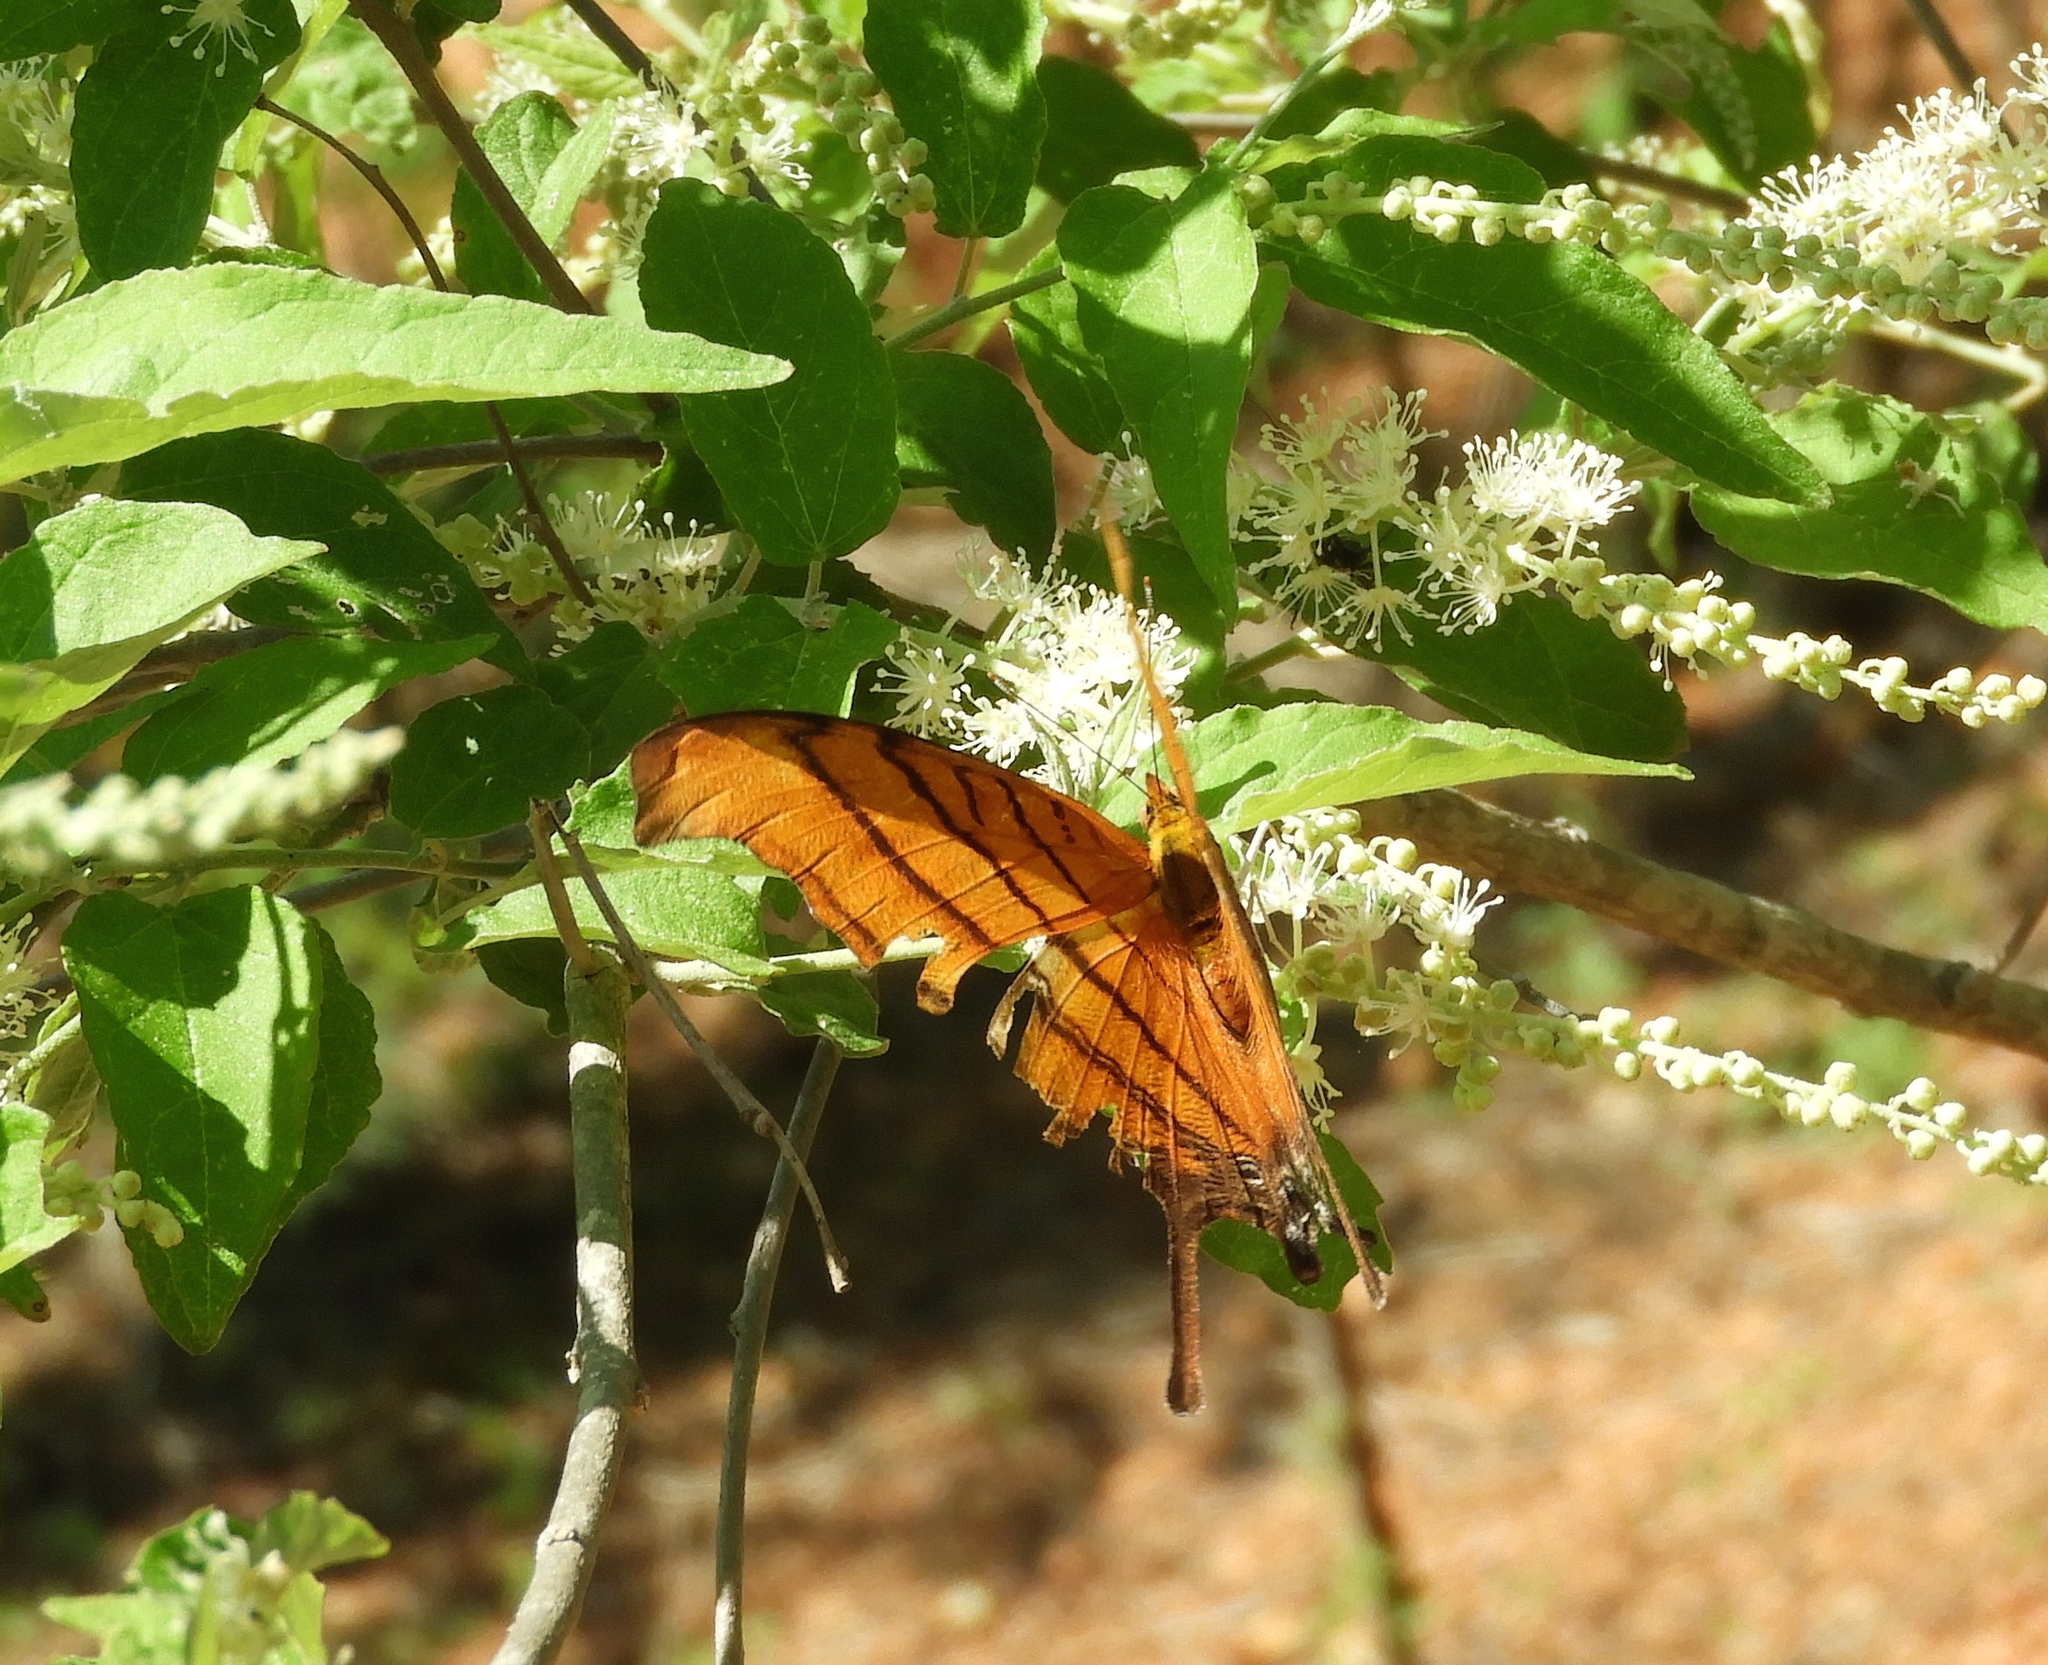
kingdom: Animalia
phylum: Arthropoda
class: Insecta
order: Lepidoptera
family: Nymphalidae
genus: Marpesia
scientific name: Marpesia petreus
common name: Red dagger wing
